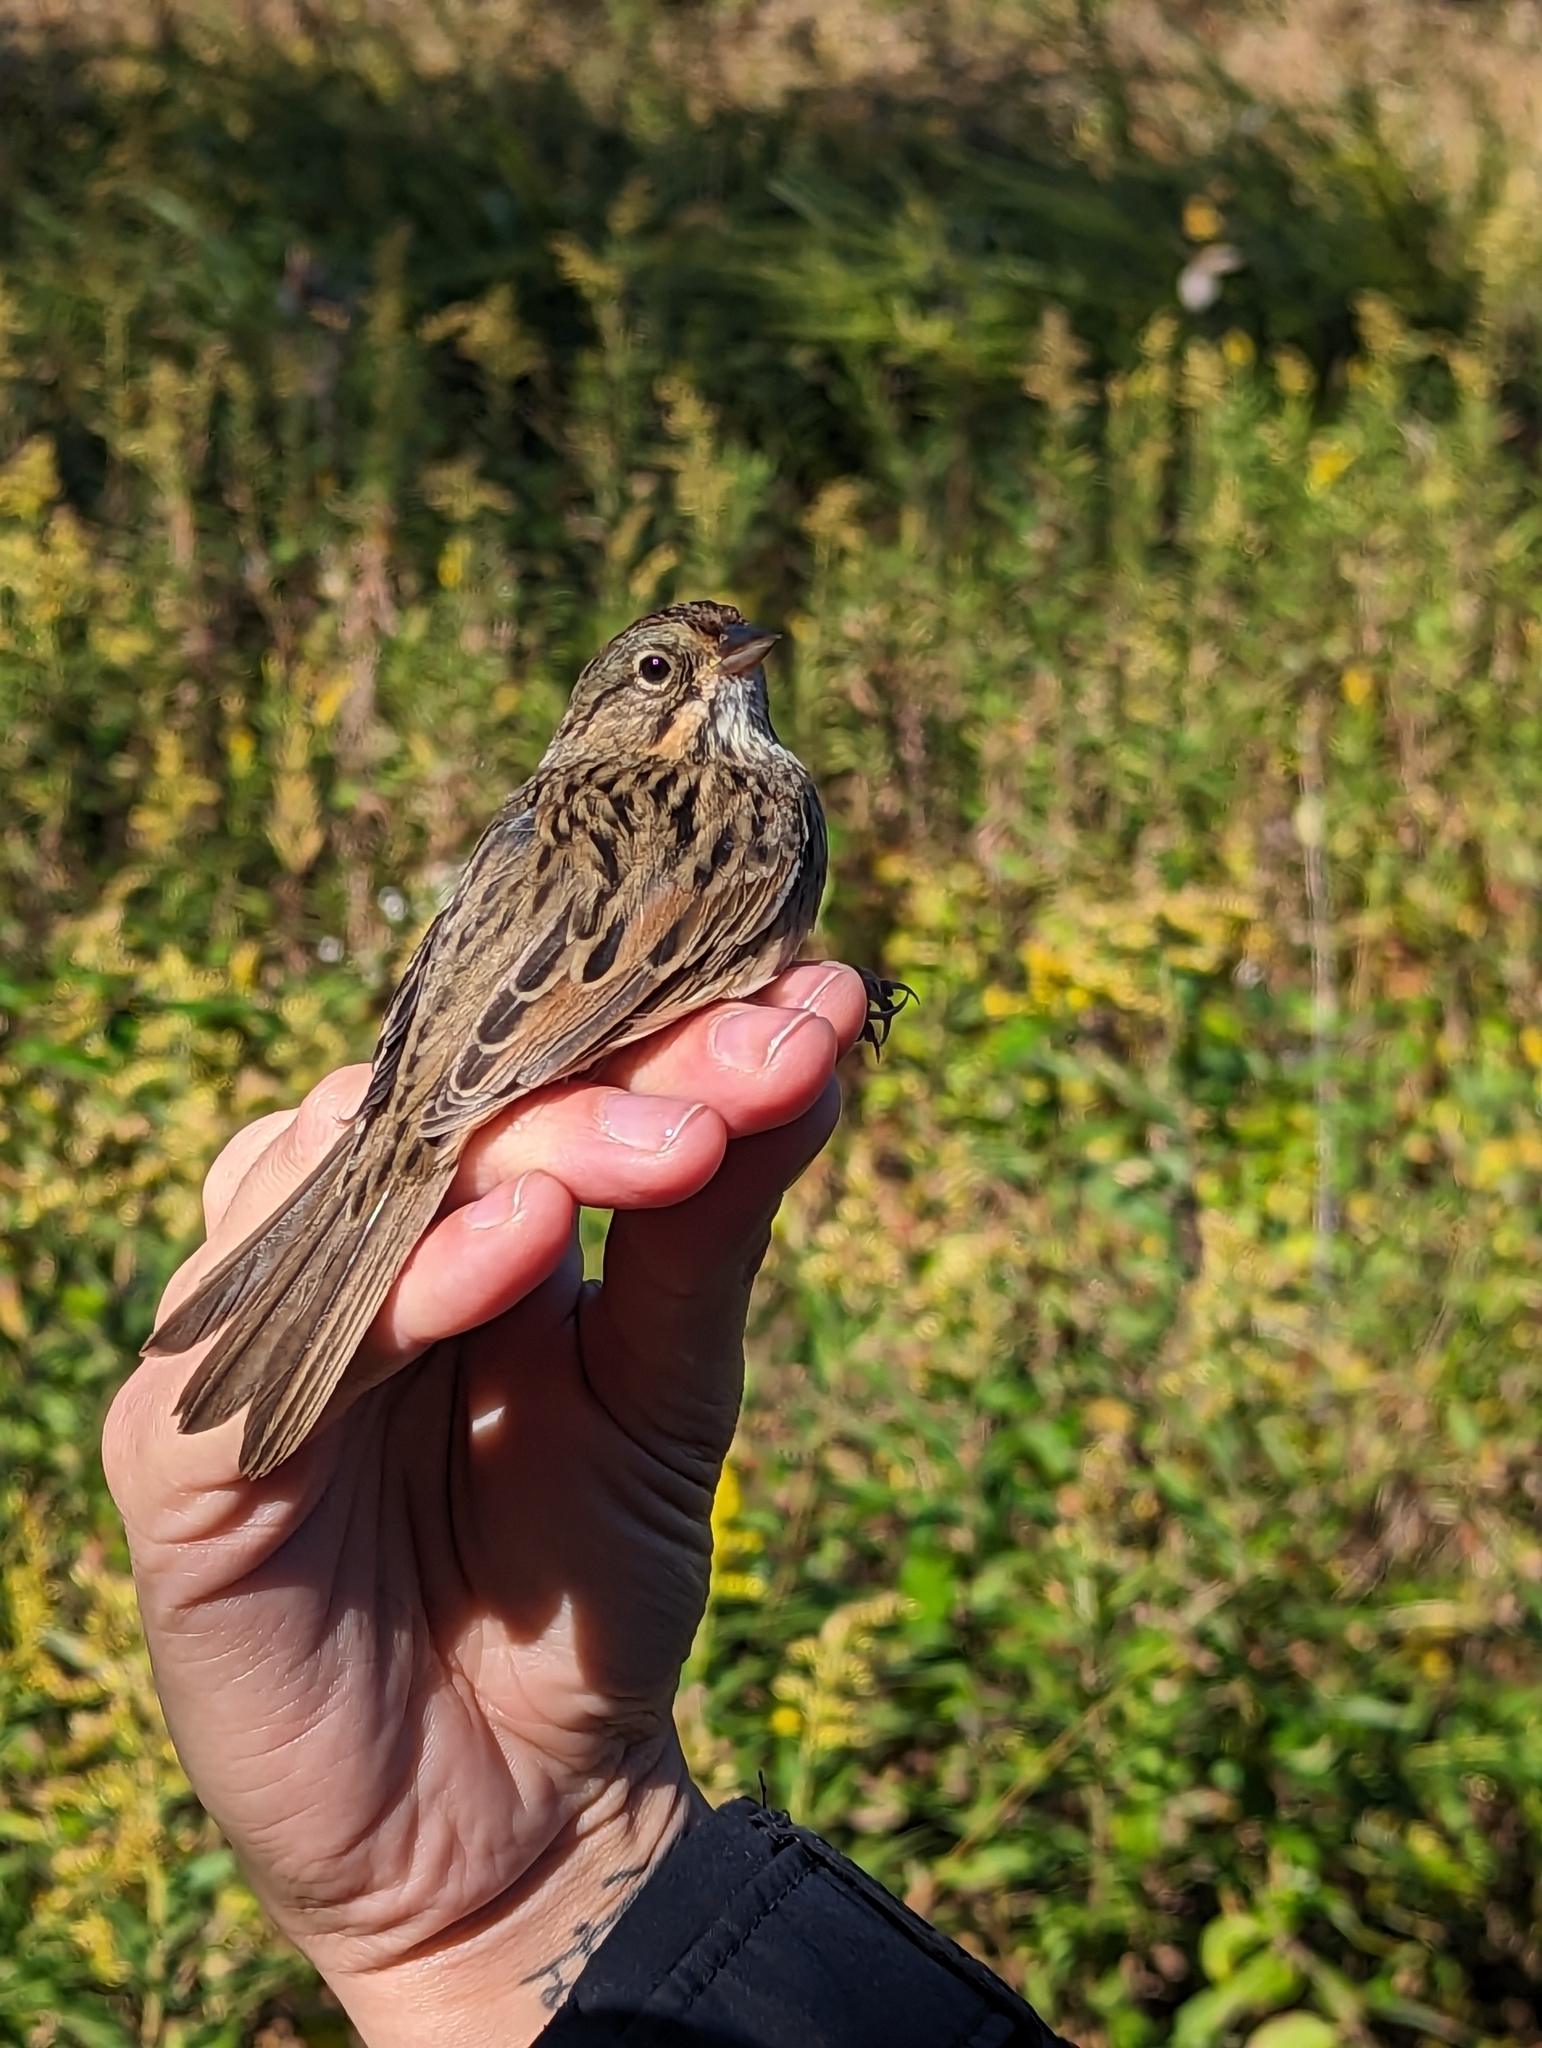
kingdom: Animalia
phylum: Chordata
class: Aves
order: Passeriformes
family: Passerellidae
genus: Melospiza
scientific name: Melospiza lincolnii
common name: Lincoln's sparrow
